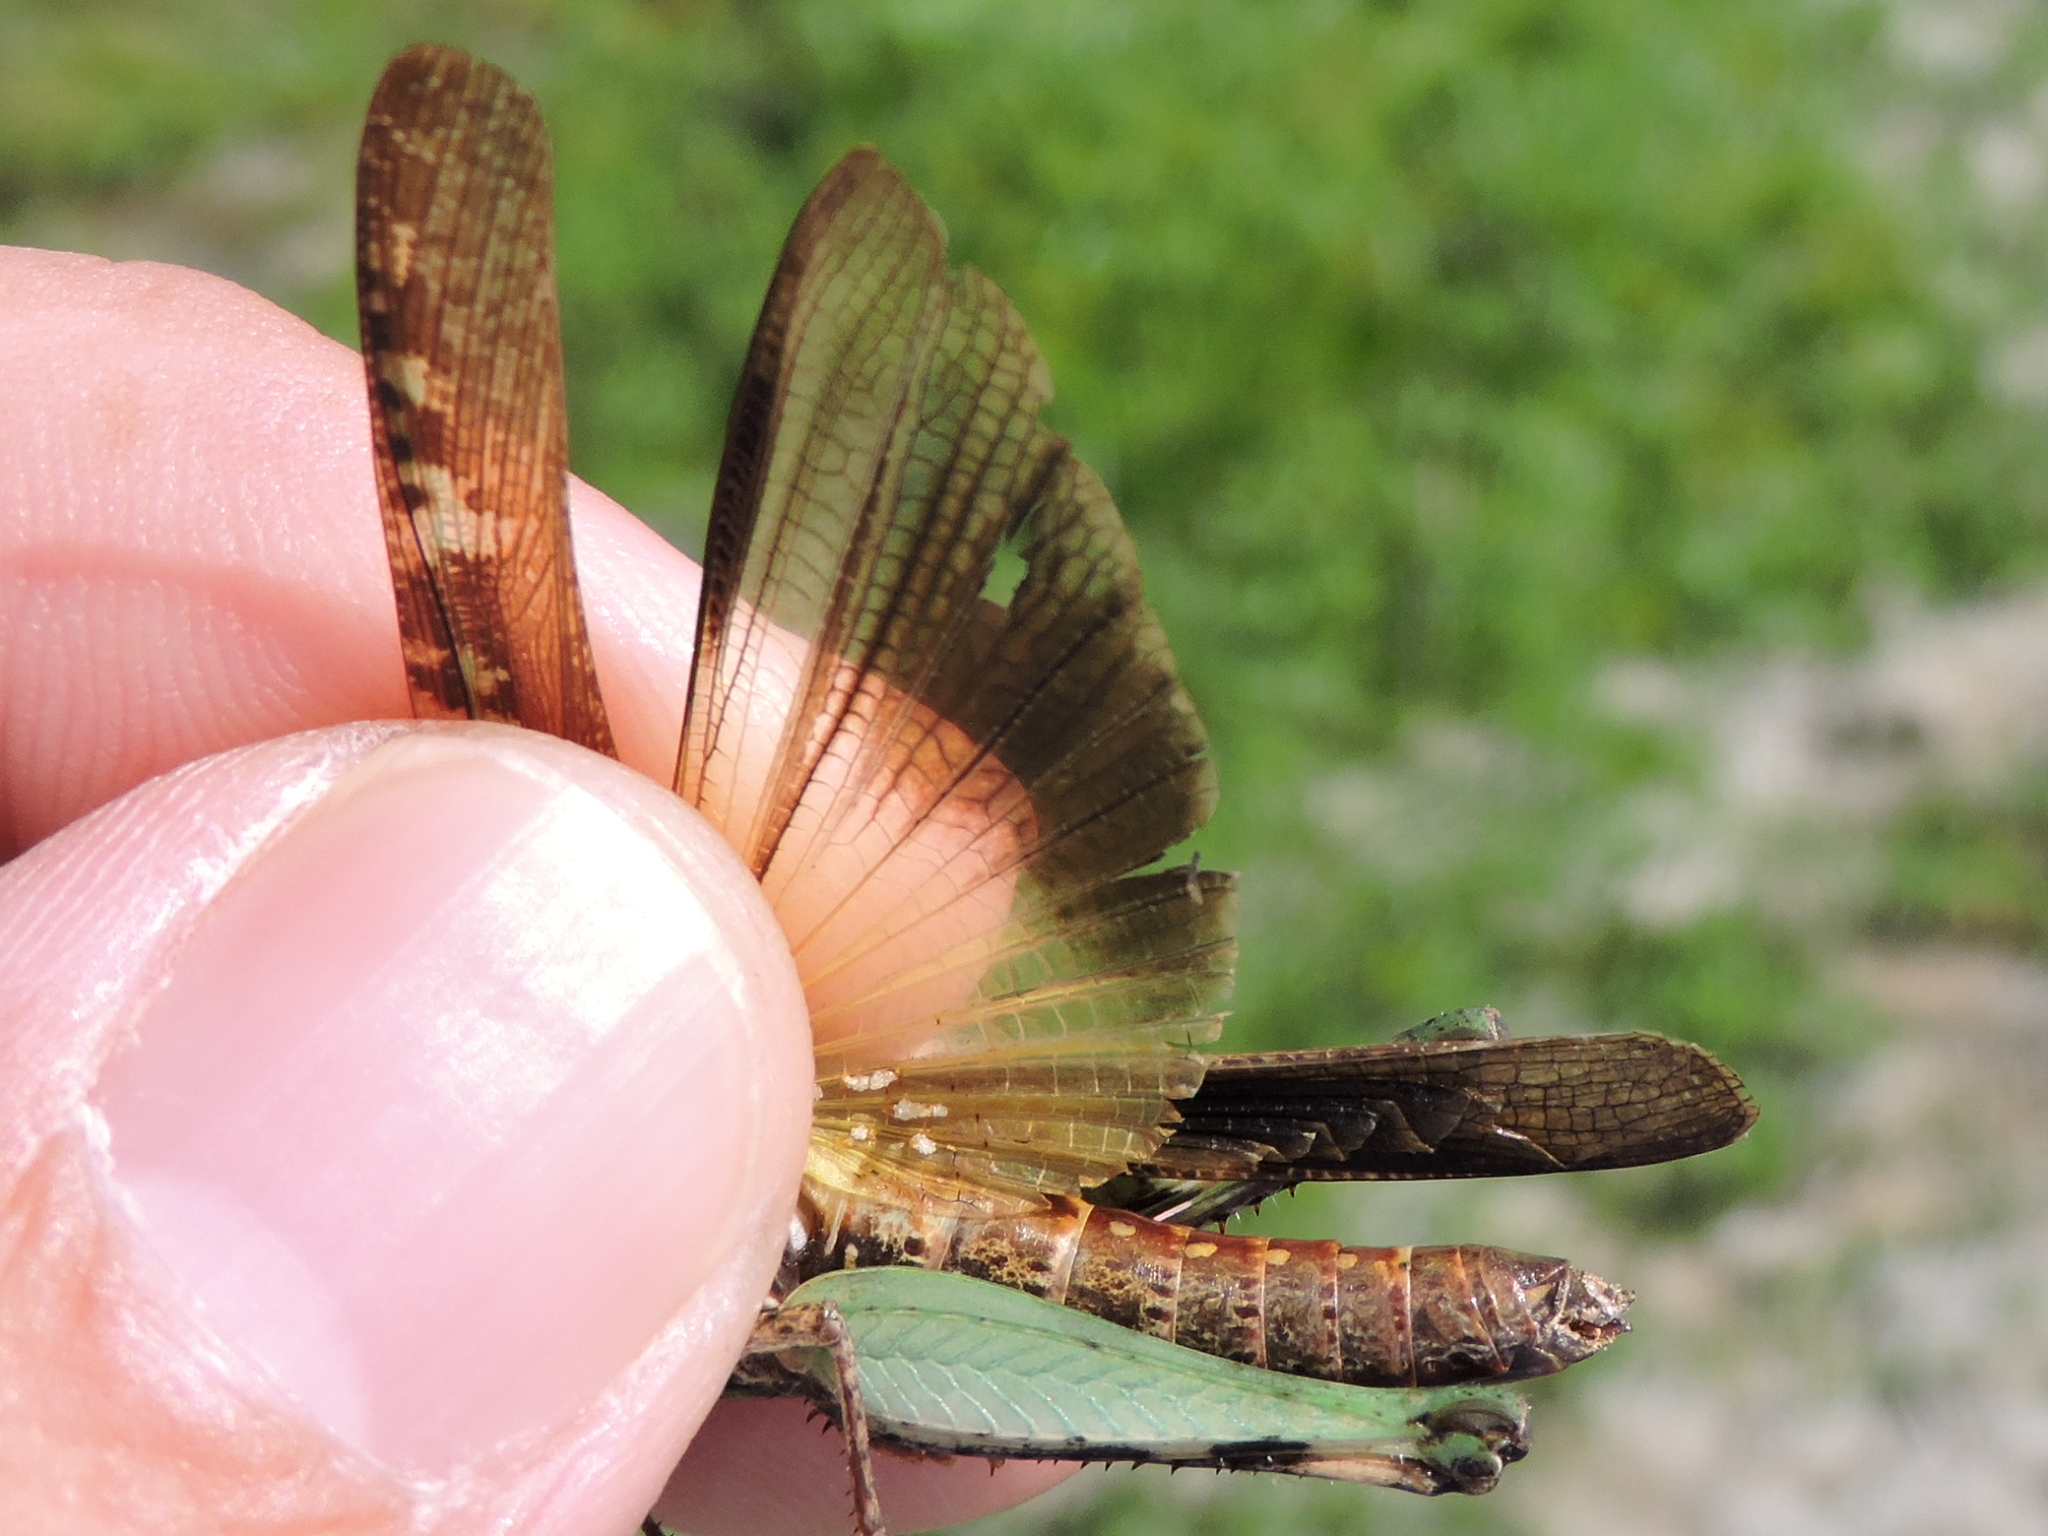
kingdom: Animalia
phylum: Arthropoda
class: Insecta
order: Orthoptera
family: Acrididae
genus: Chortophaga
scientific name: Chortophaga viridifasciata
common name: Green-striped grasshopper
